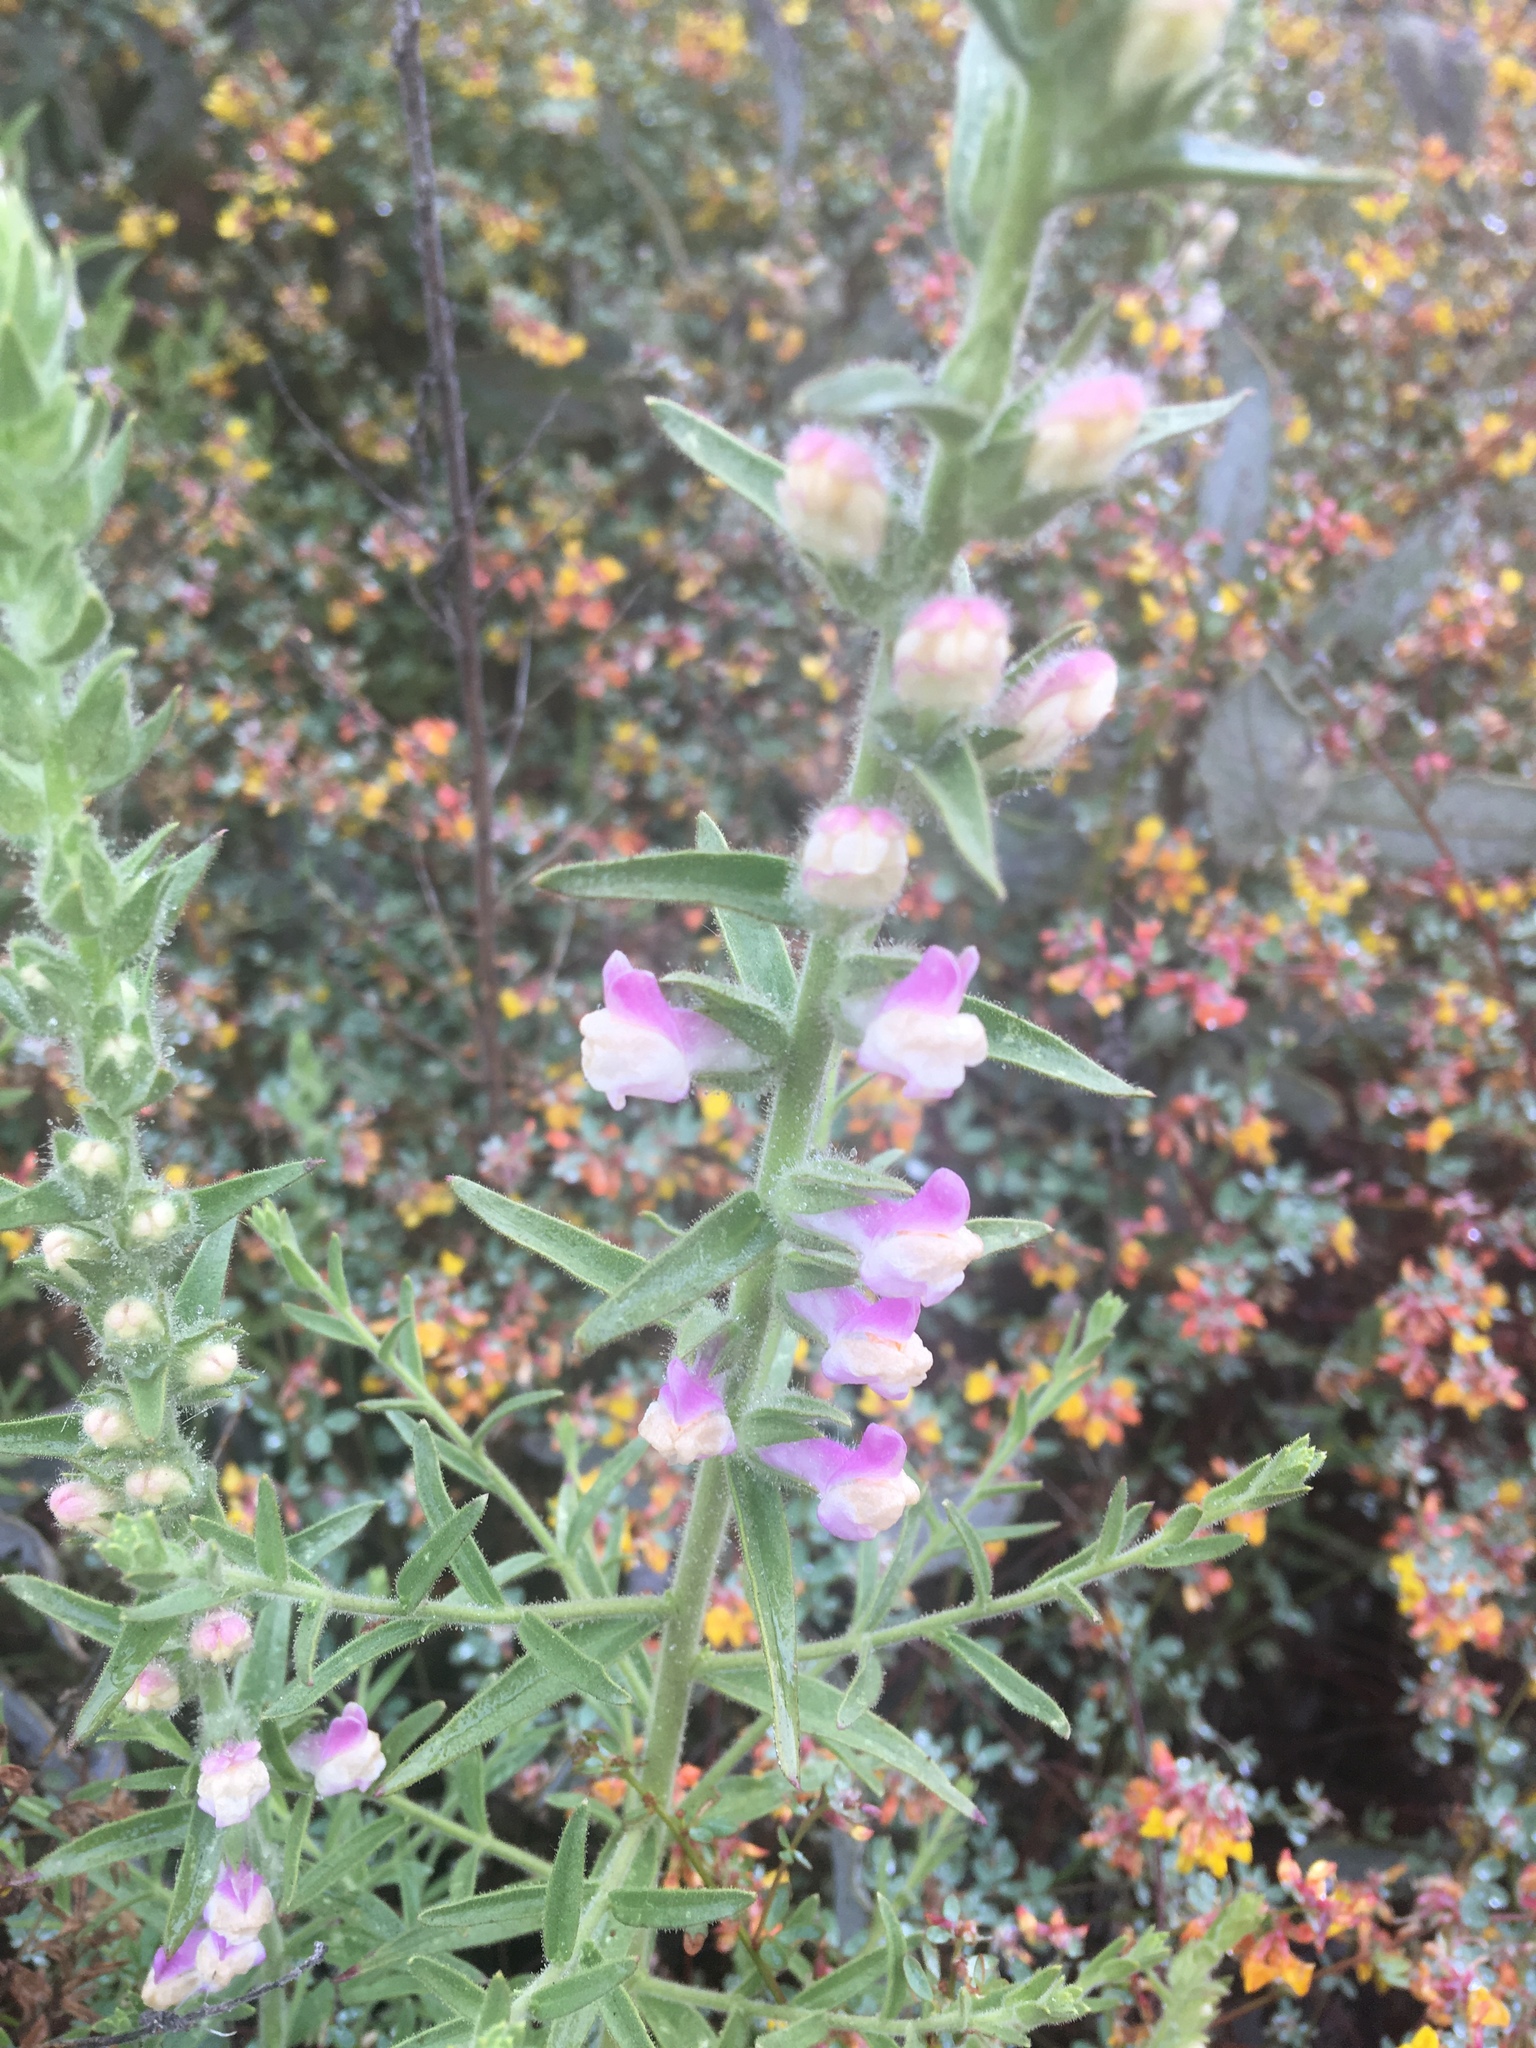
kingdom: Plantae
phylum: Tracheophyta
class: Magnoliopsida
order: Lamiales
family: Plantaginaceae
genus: Sairocarpus
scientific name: Sairocarpus multiflorus
